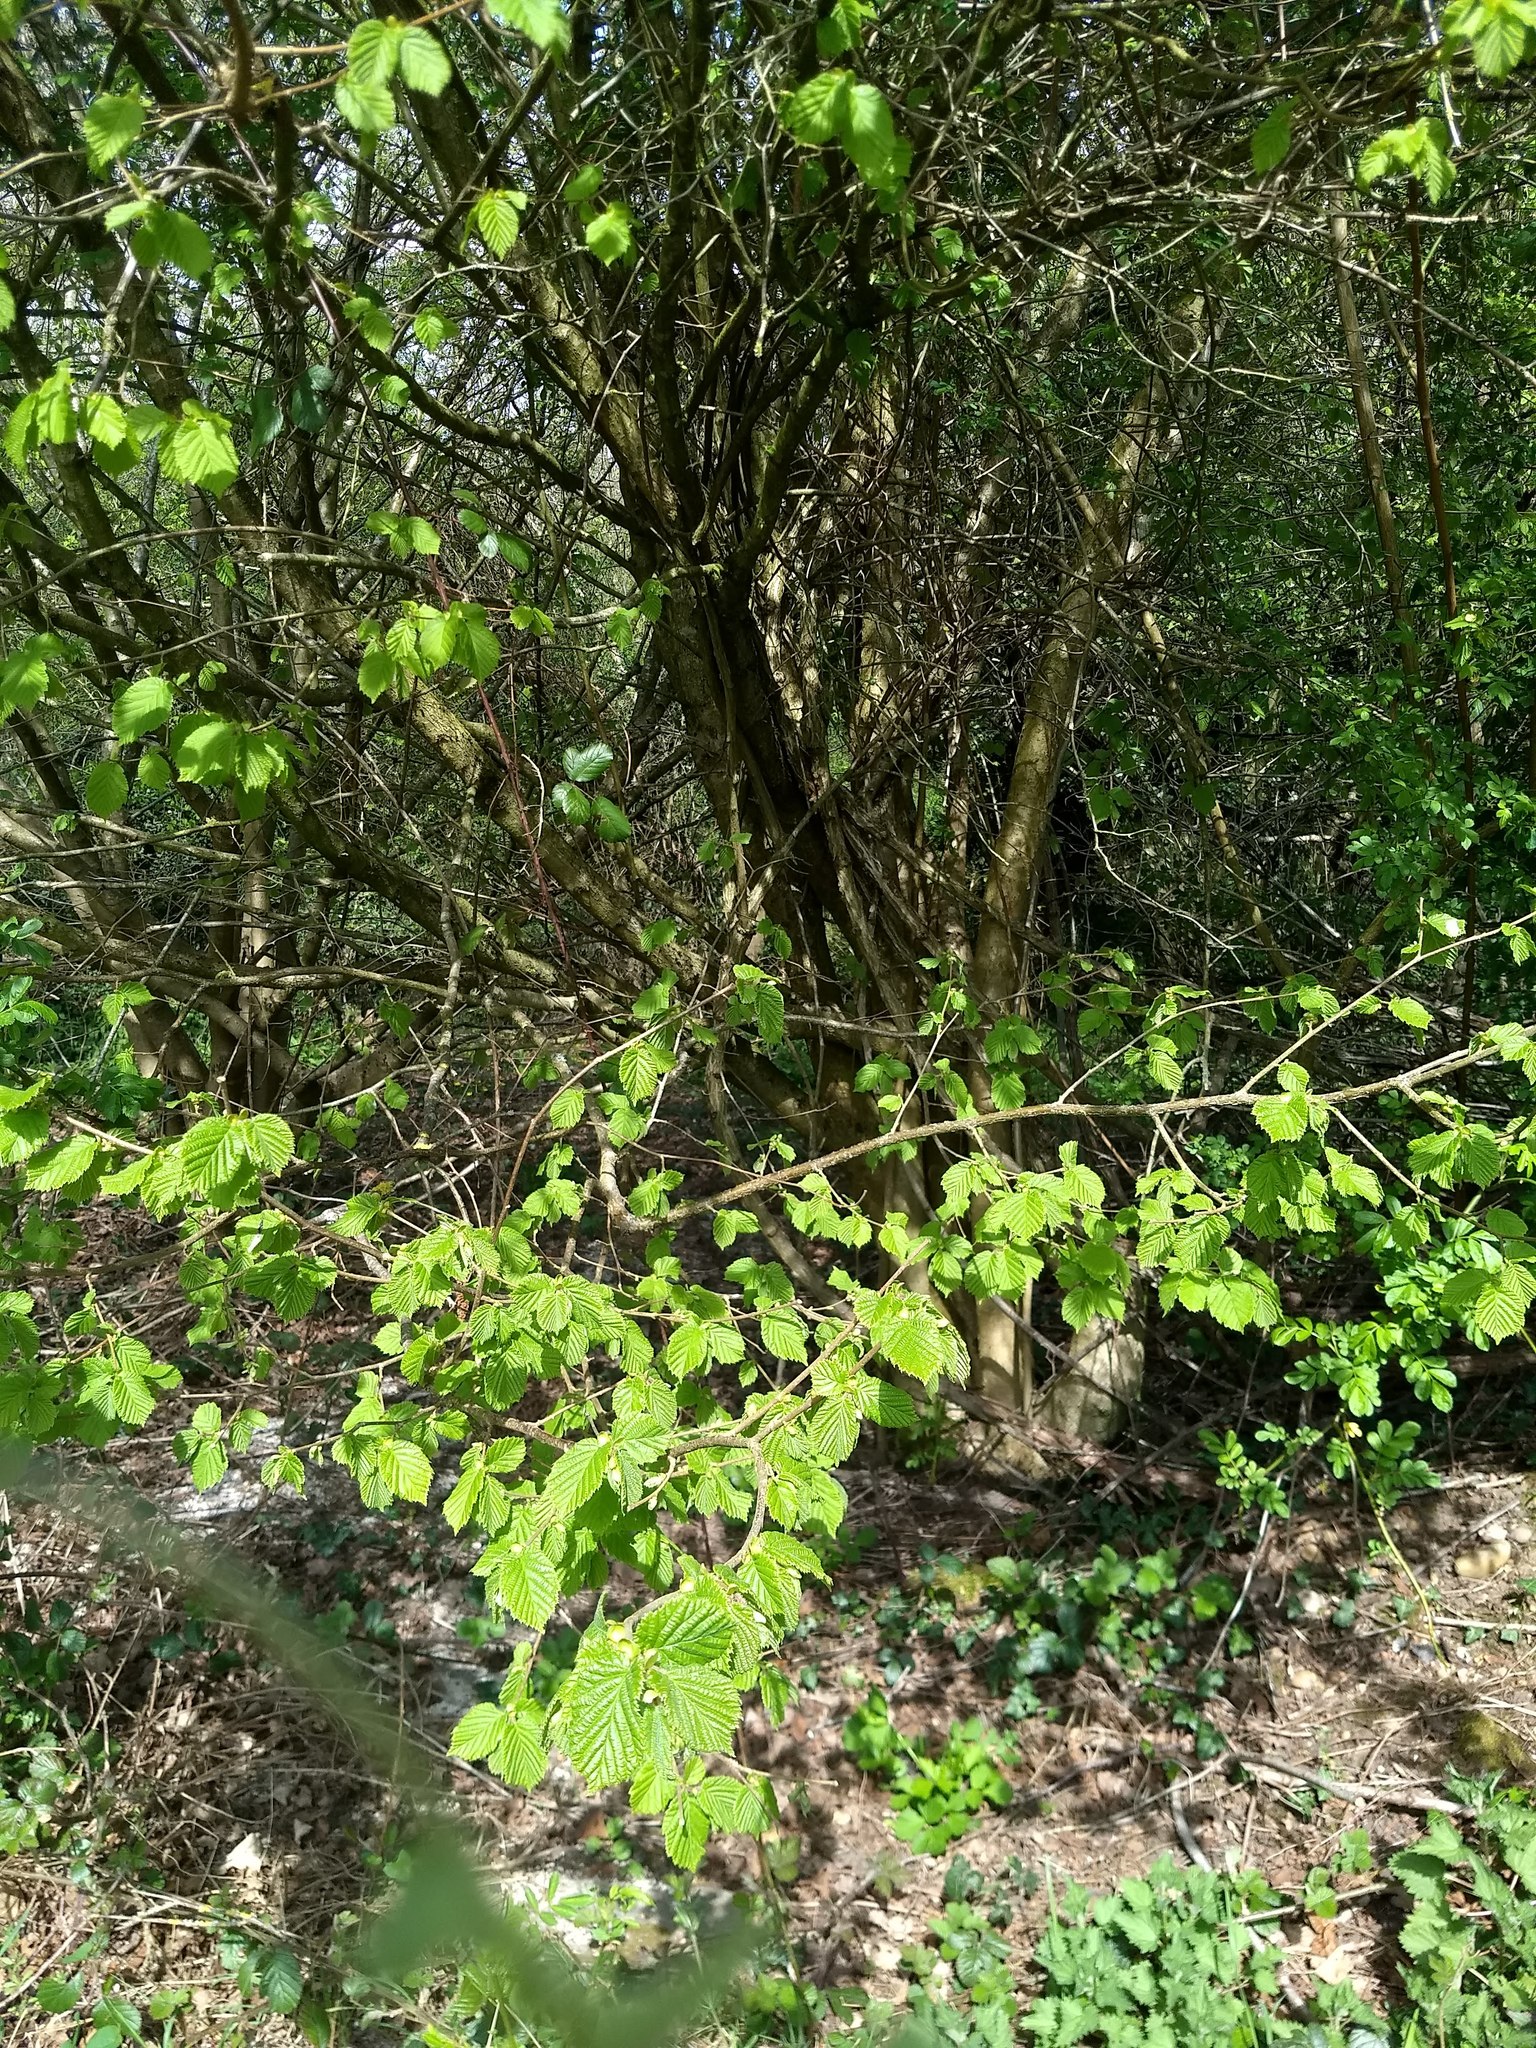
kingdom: Plantae
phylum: Tracheophyta
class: Magnoliopsida
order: Fagales
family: Betulaceae
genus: Corylus
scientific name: Corylus avellana
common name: European hazel
